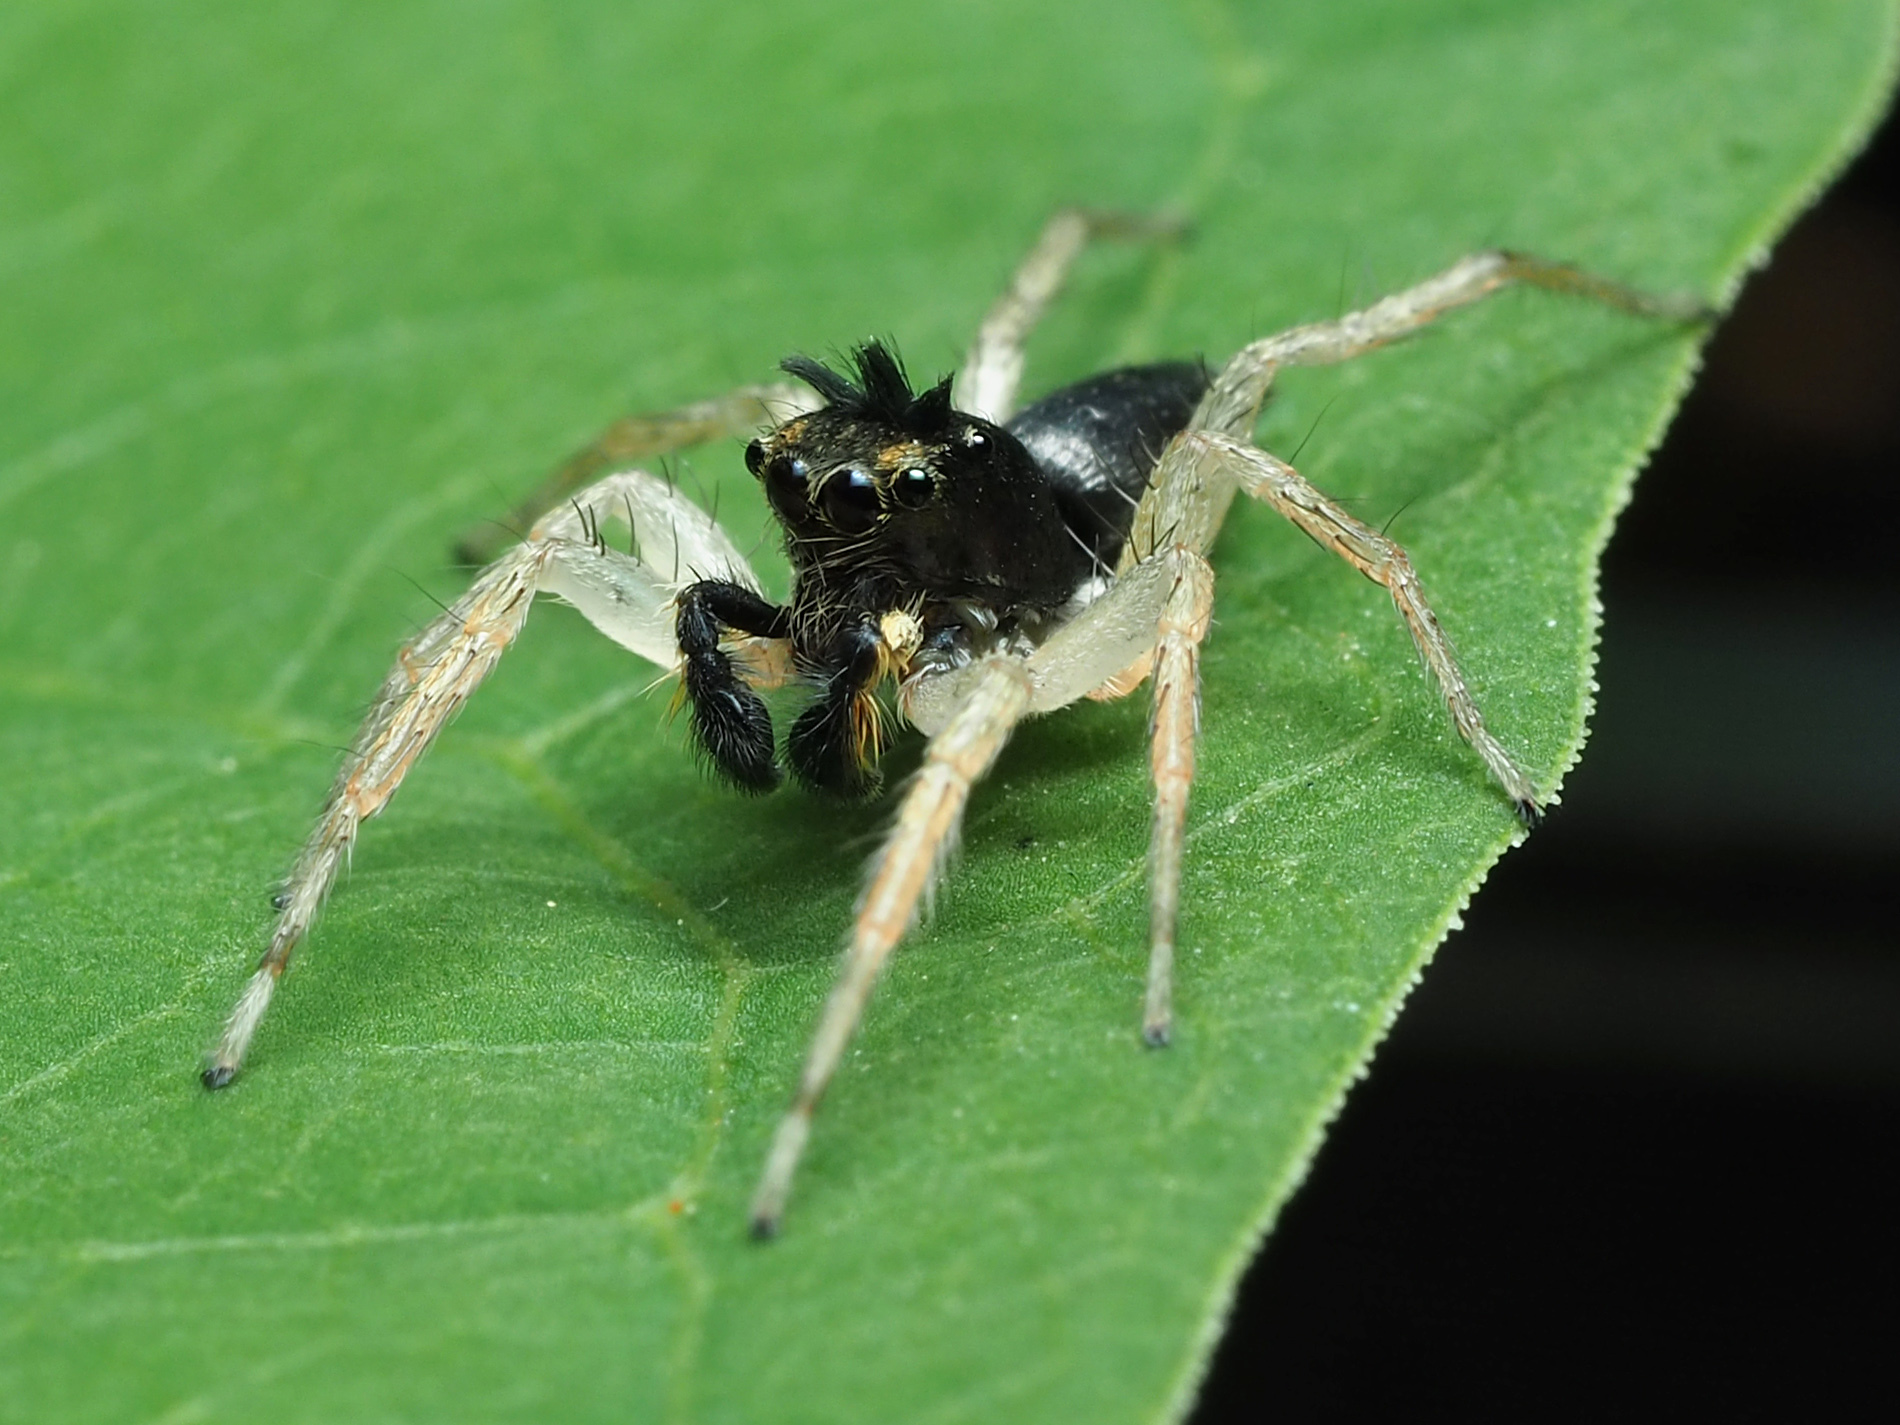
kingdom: Animalia
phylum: Arthropoda
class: Arachnida
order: Araneae
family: Salticidae
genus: Maevia
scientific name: Maevia inclemens
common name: Dimorphic jumper
